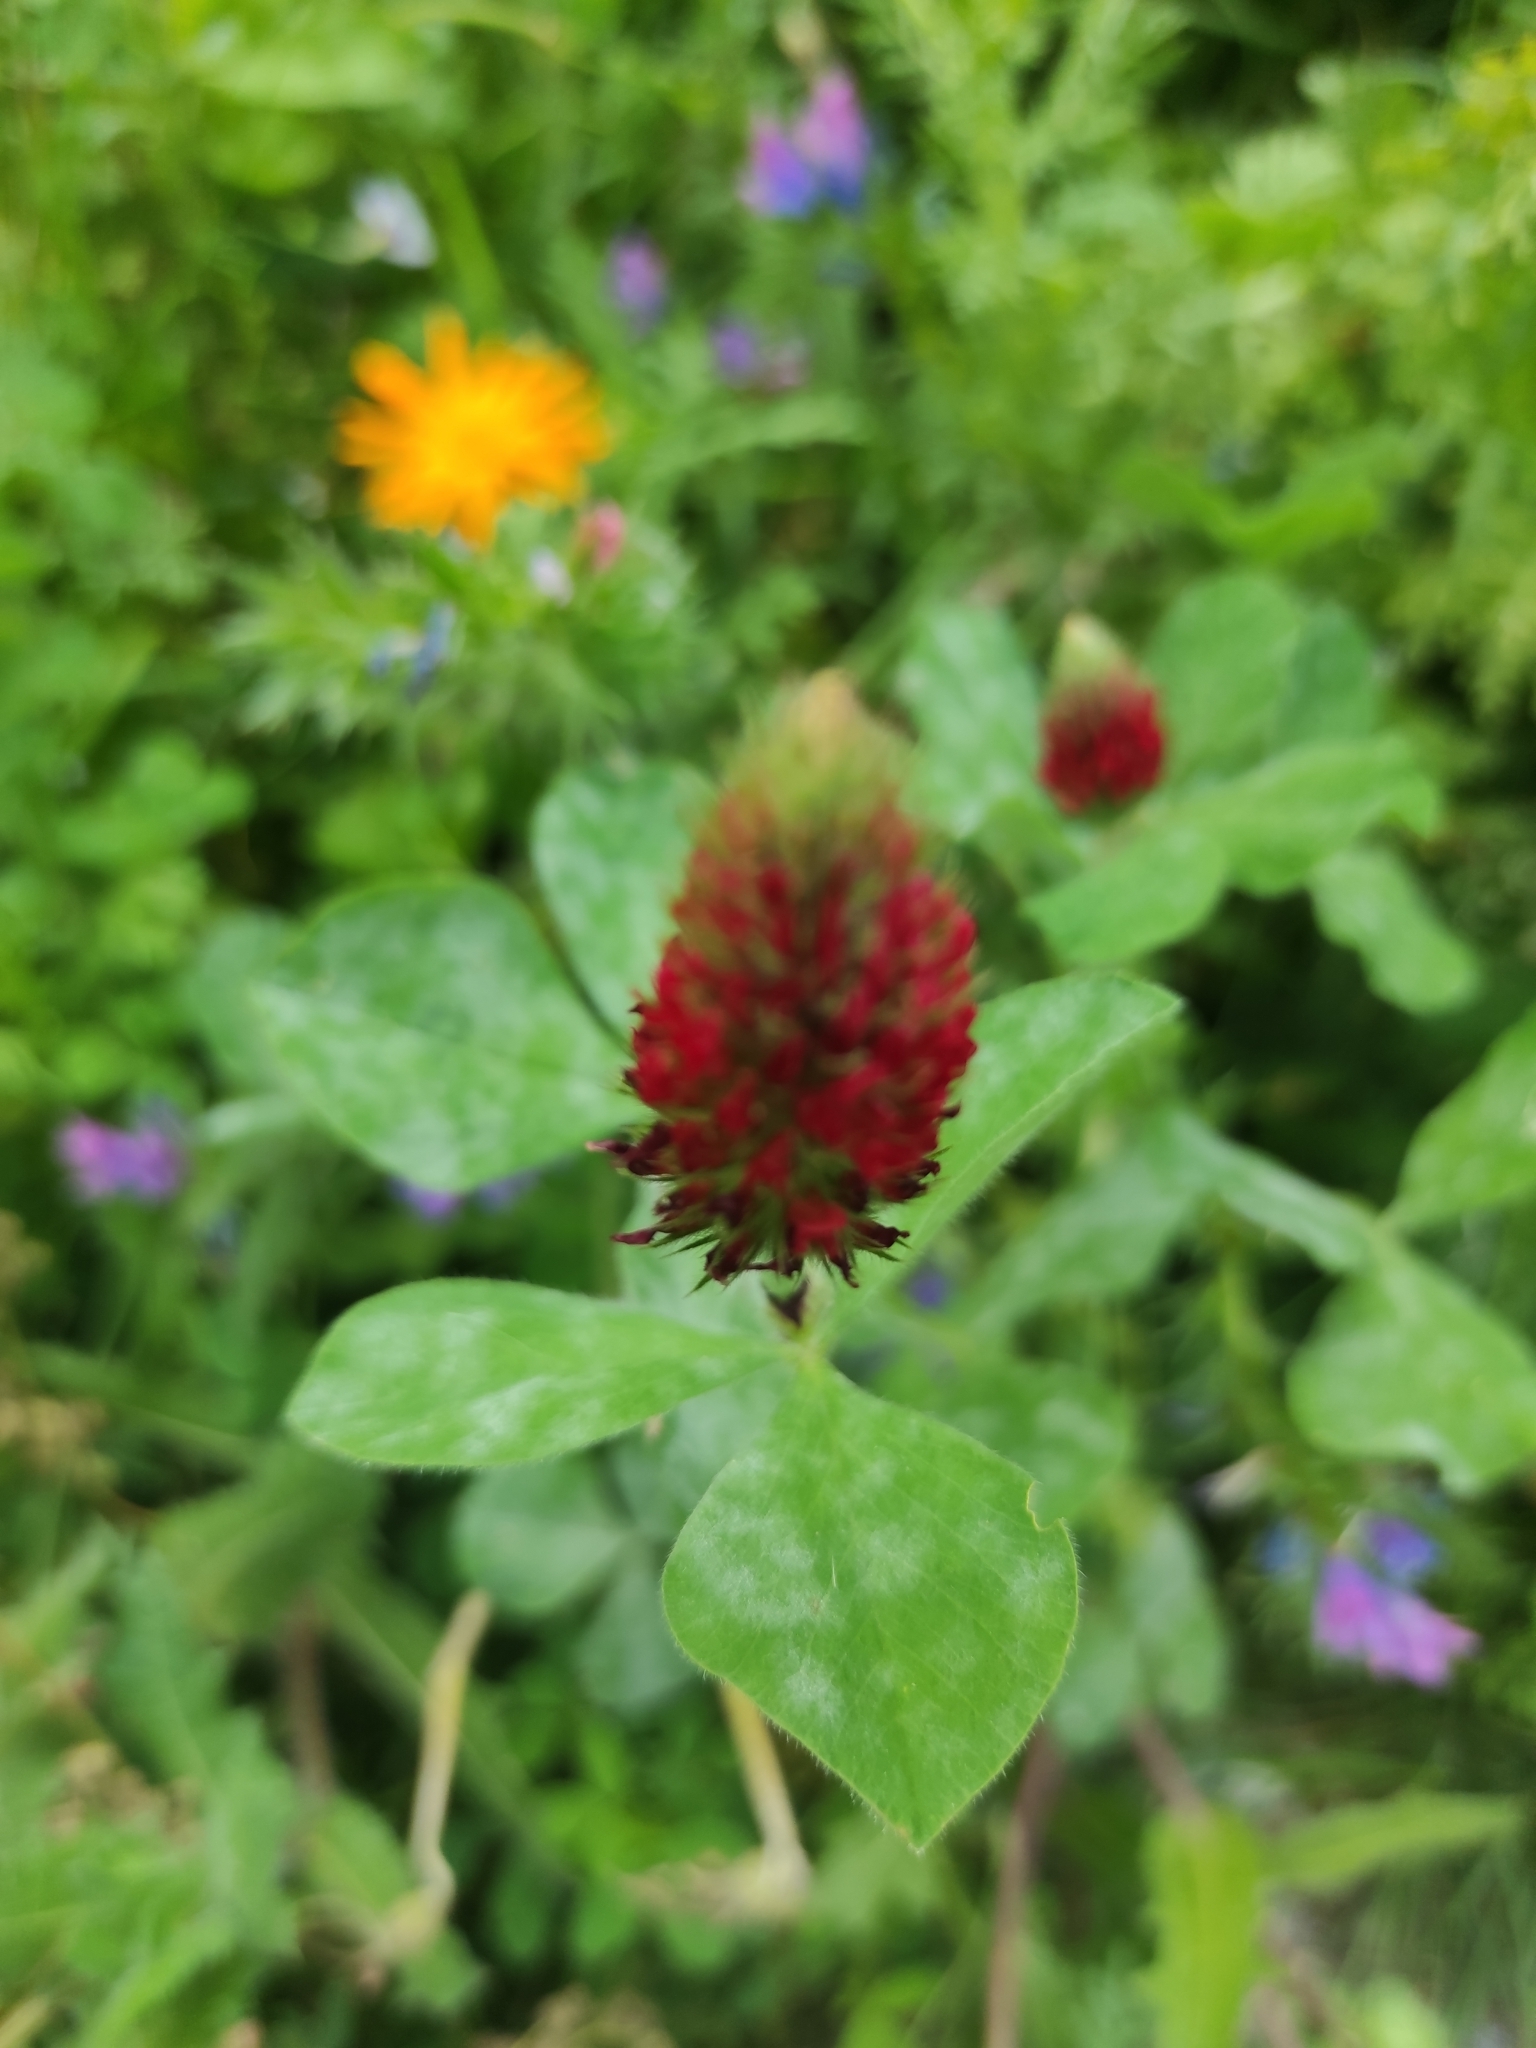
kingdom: Plantae
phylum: Tracheophyta
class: Magnoliopsida
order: Fabales
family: Fabaceae
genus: Trifolium
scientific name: Trifolium incarnatum
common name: Crimson clover
